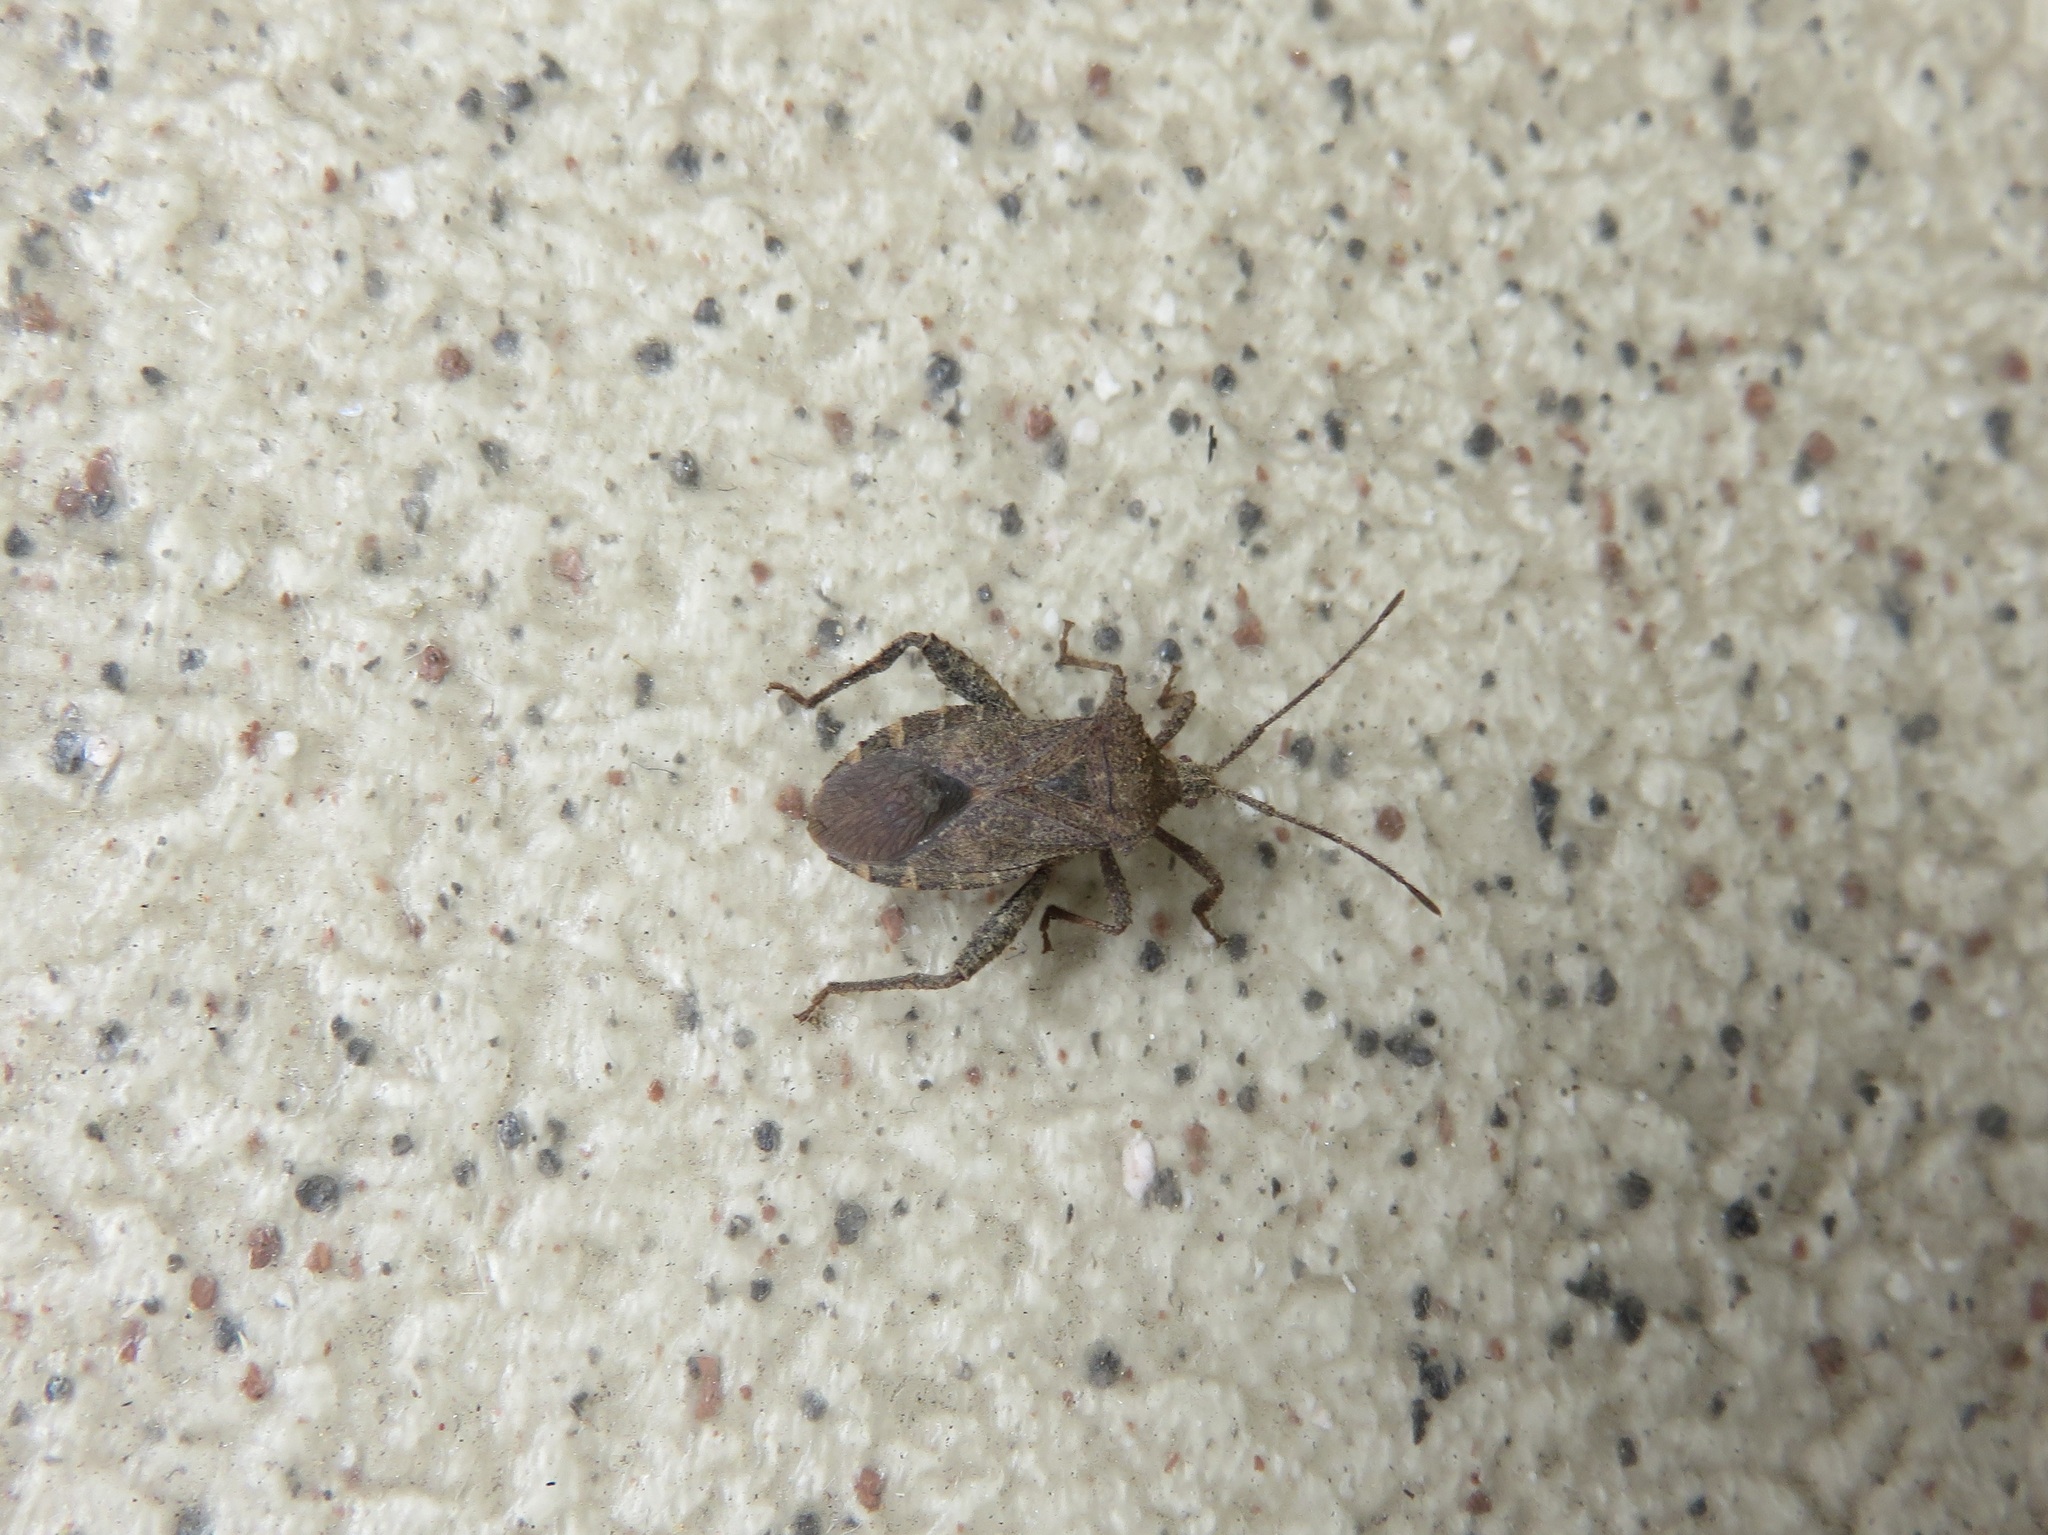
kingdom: Animalia
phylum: Arthropoda
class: Insecta
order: Hemiptera
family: Coreidae
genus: Acanthocoris
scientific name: Acanthocoris sordidus
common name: Winter cherry bug
